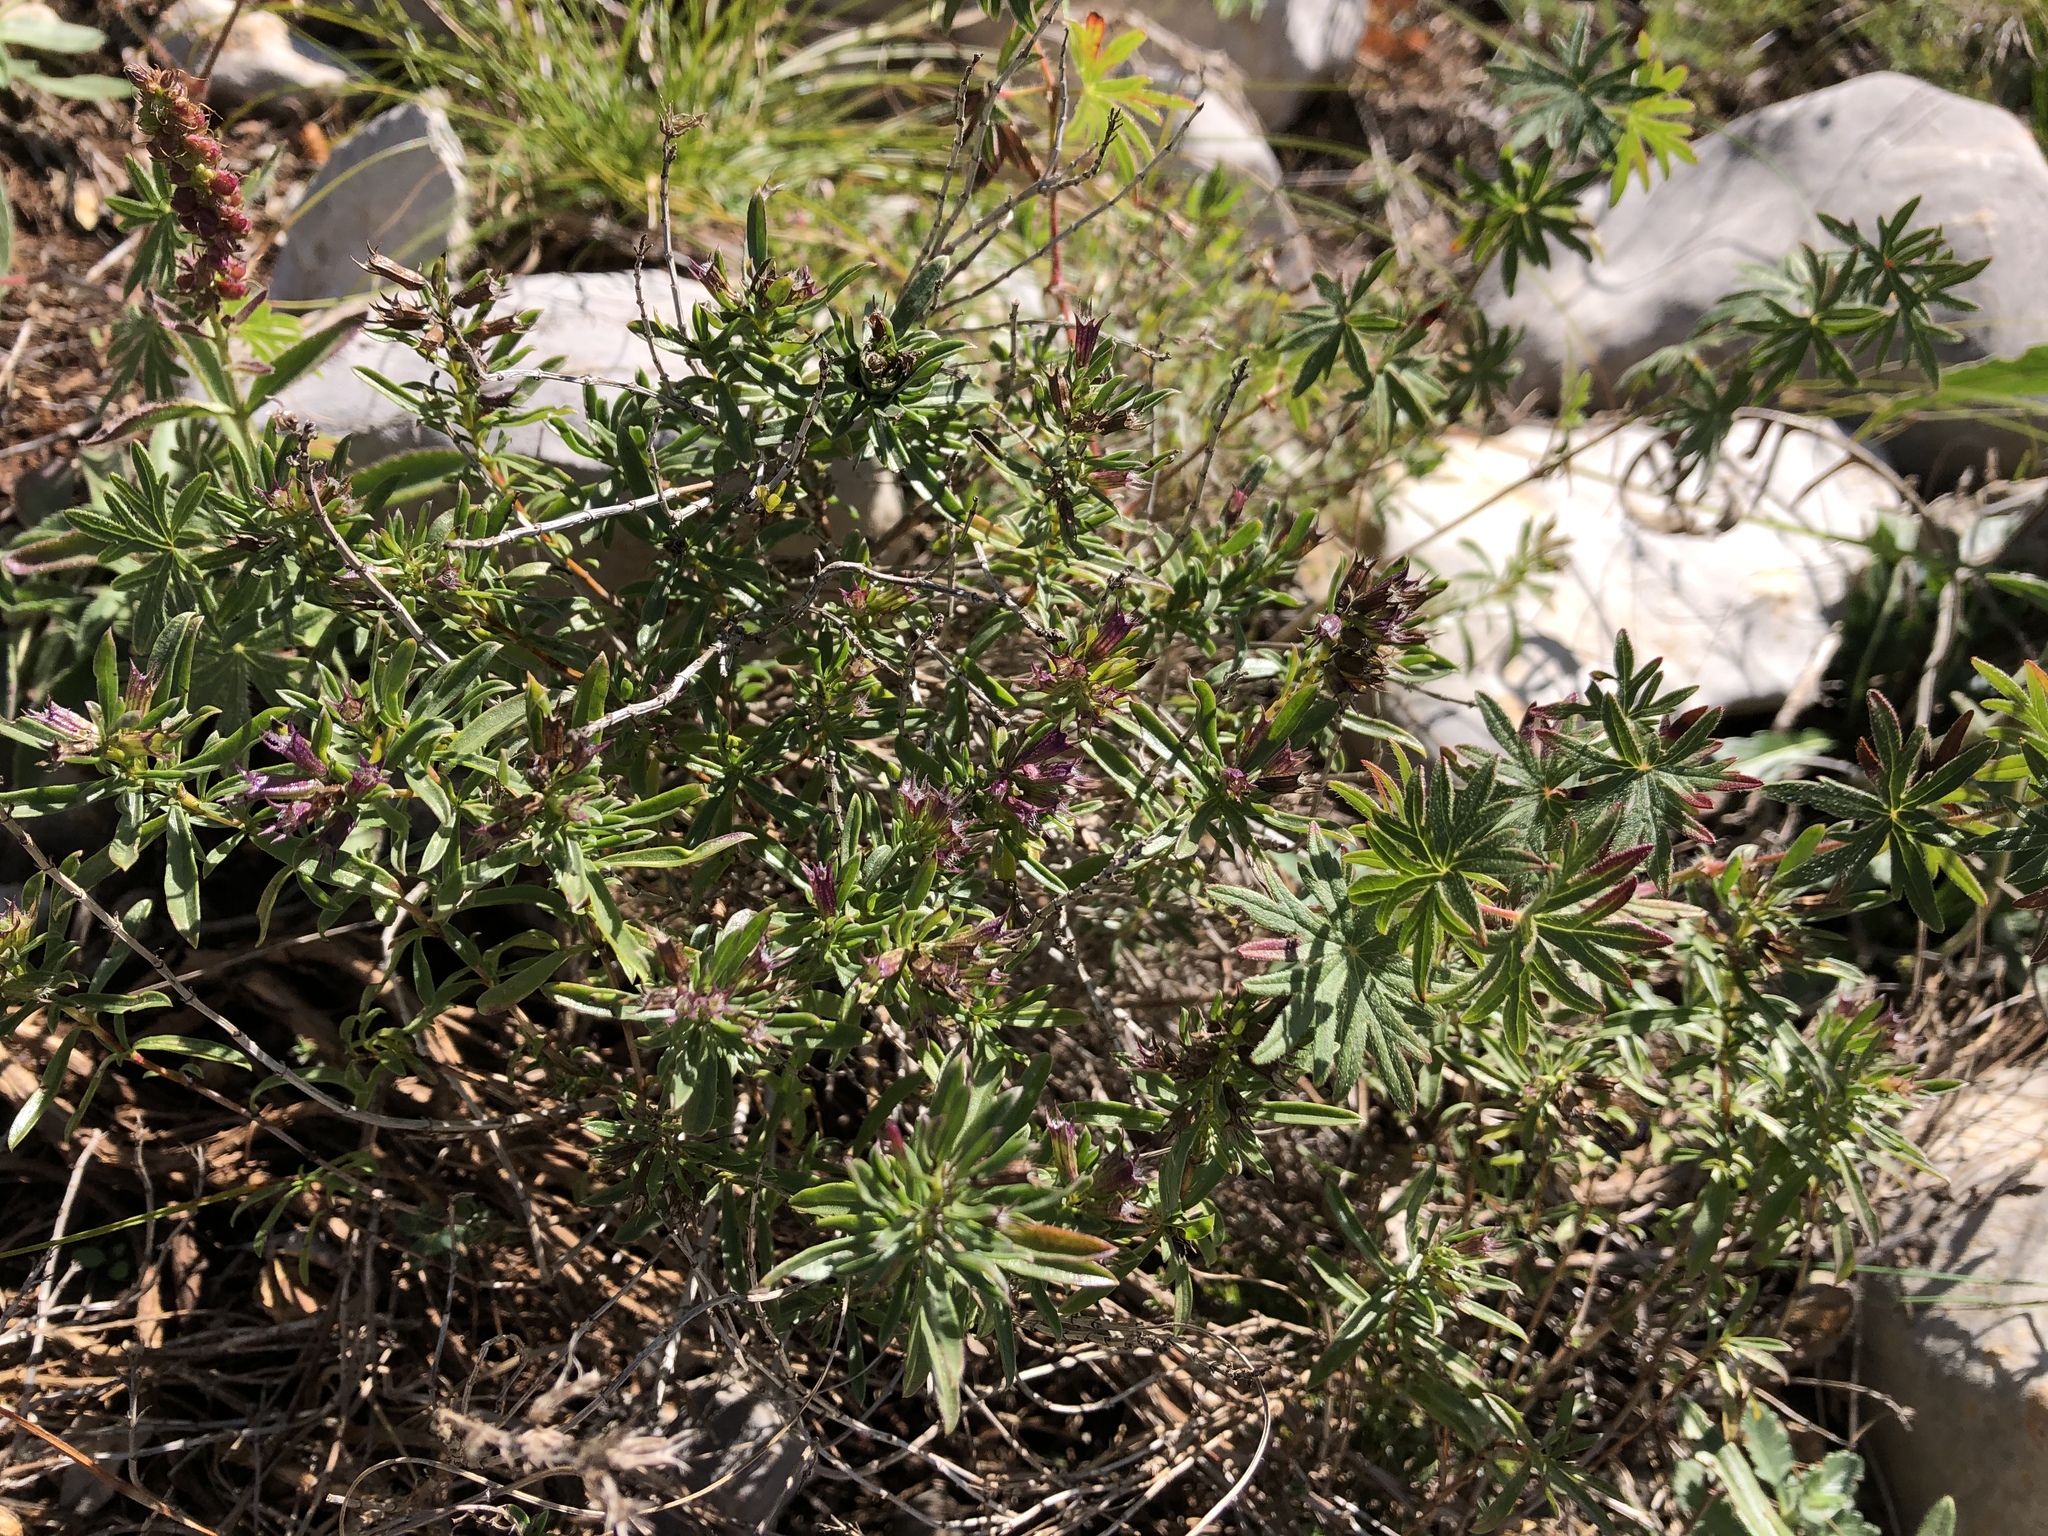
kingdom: Plantae
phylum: Tracheophyta
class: Magnoliopsida
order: Geraniales
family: Geraniaceae
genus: Geranium
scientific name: Geranium sanguineum
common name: Bloody crane's-bill
